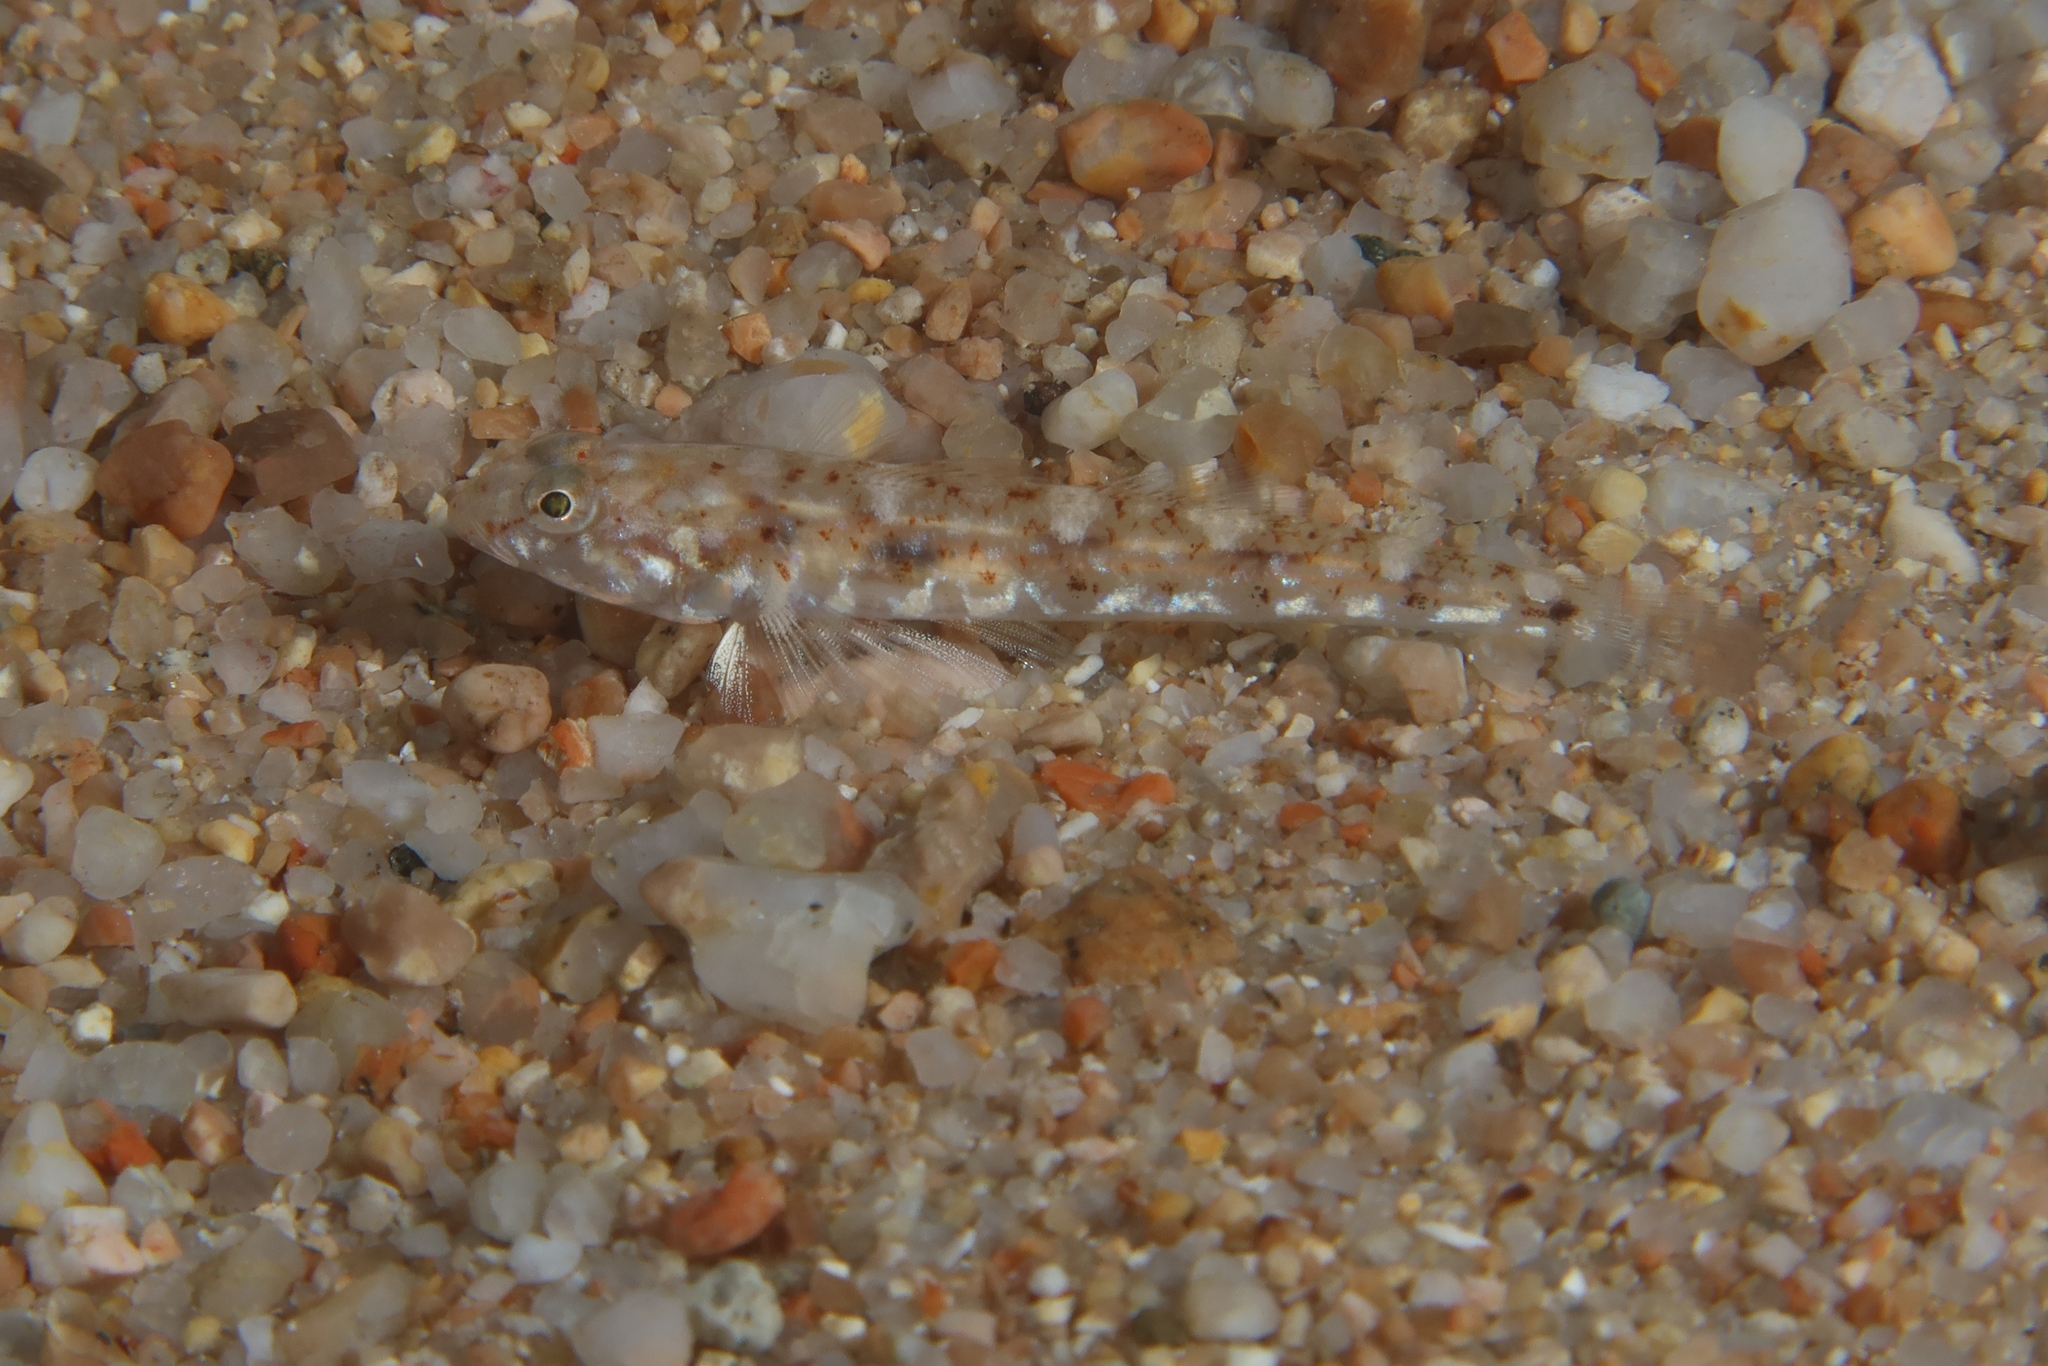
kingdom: Animalia
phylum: Chordata
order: Perciformes
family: Gobiidae
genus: Pomatoschistus
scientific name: Pomatoschistus marmoratus
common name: Marbled goby
